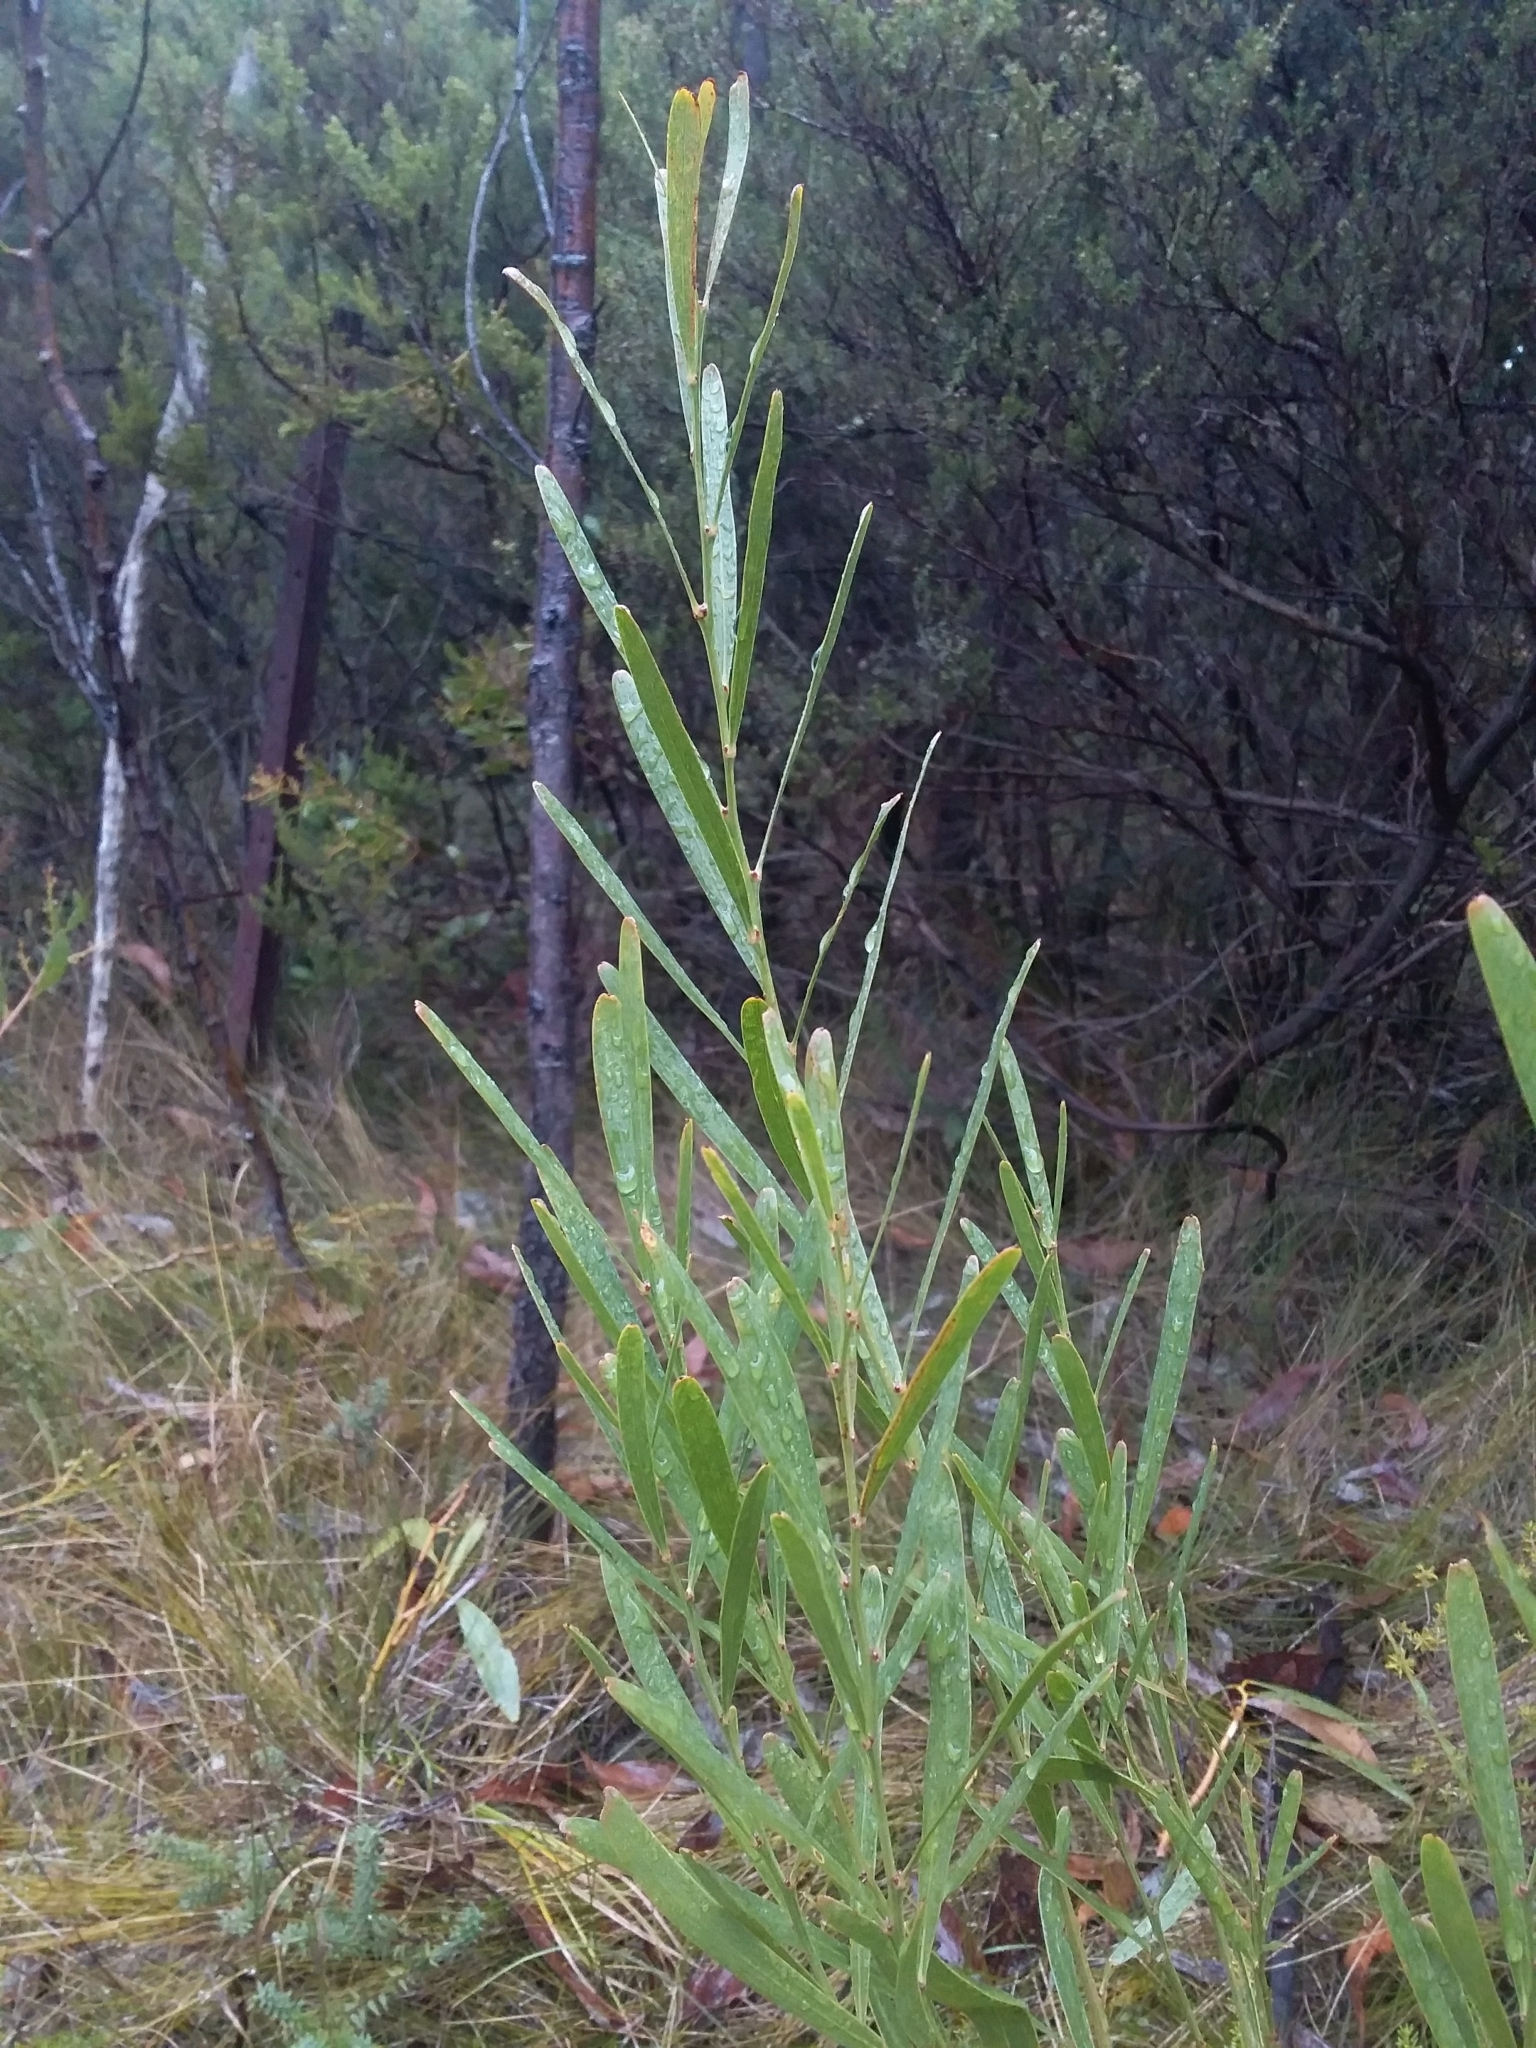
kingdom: Plantae
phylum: Tracheophyta
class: Magnoliopsida
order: Fabales
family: Fabaceae
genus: Daviesia
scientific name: Daviesia leptophylla
